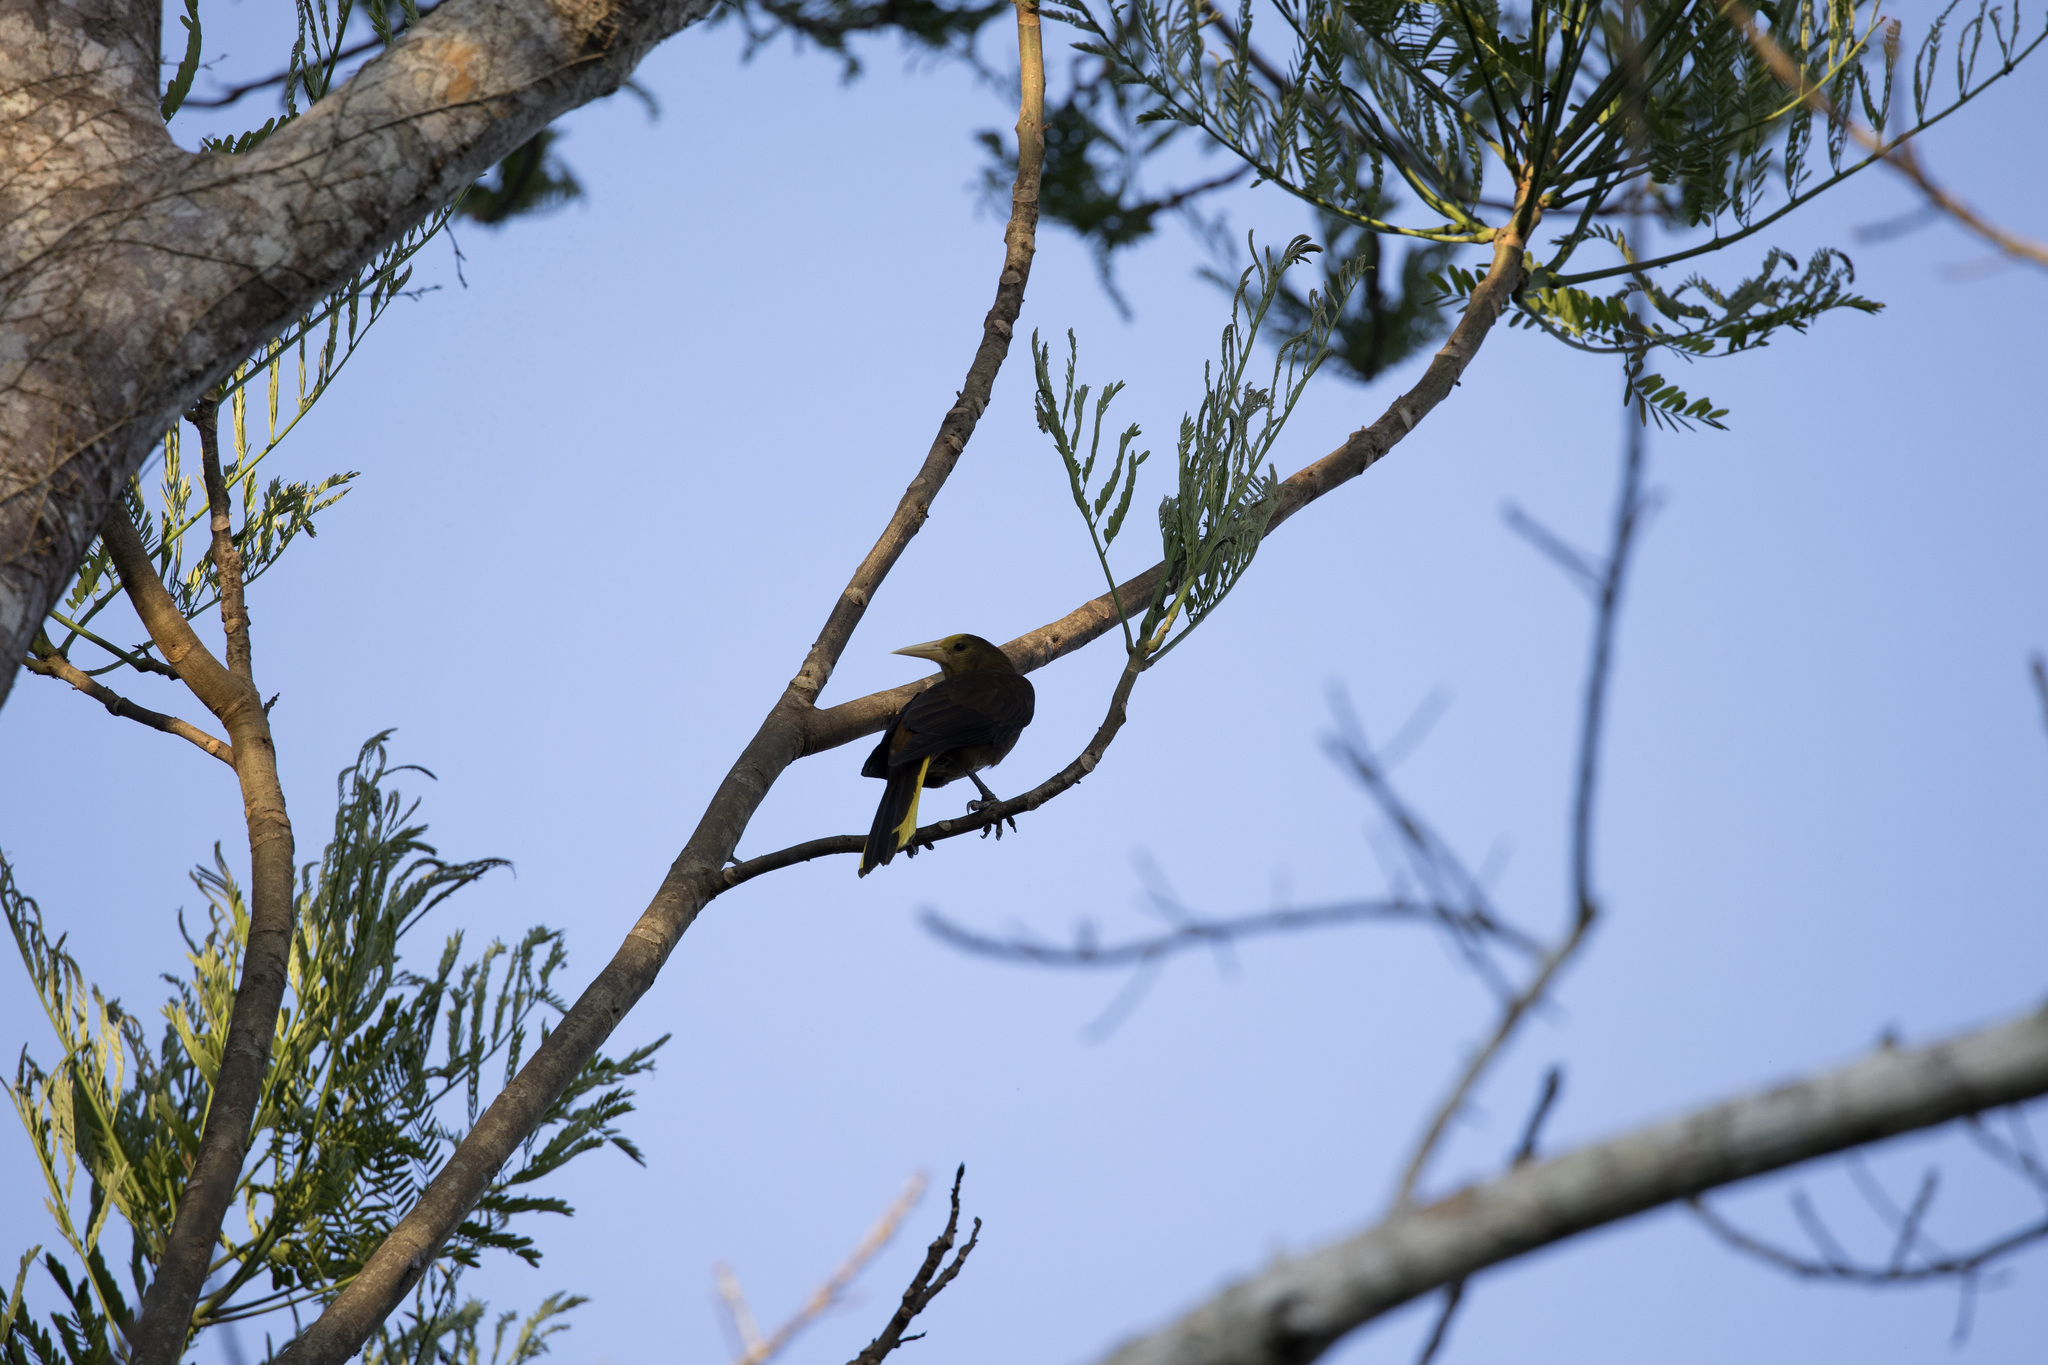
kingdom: Animalia
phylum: Chordata
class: Aves
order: Passeriformes
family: Icteridae
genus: Psarocolius
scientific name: Psarocolius angustifrons
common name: Russet-backed oropendola
